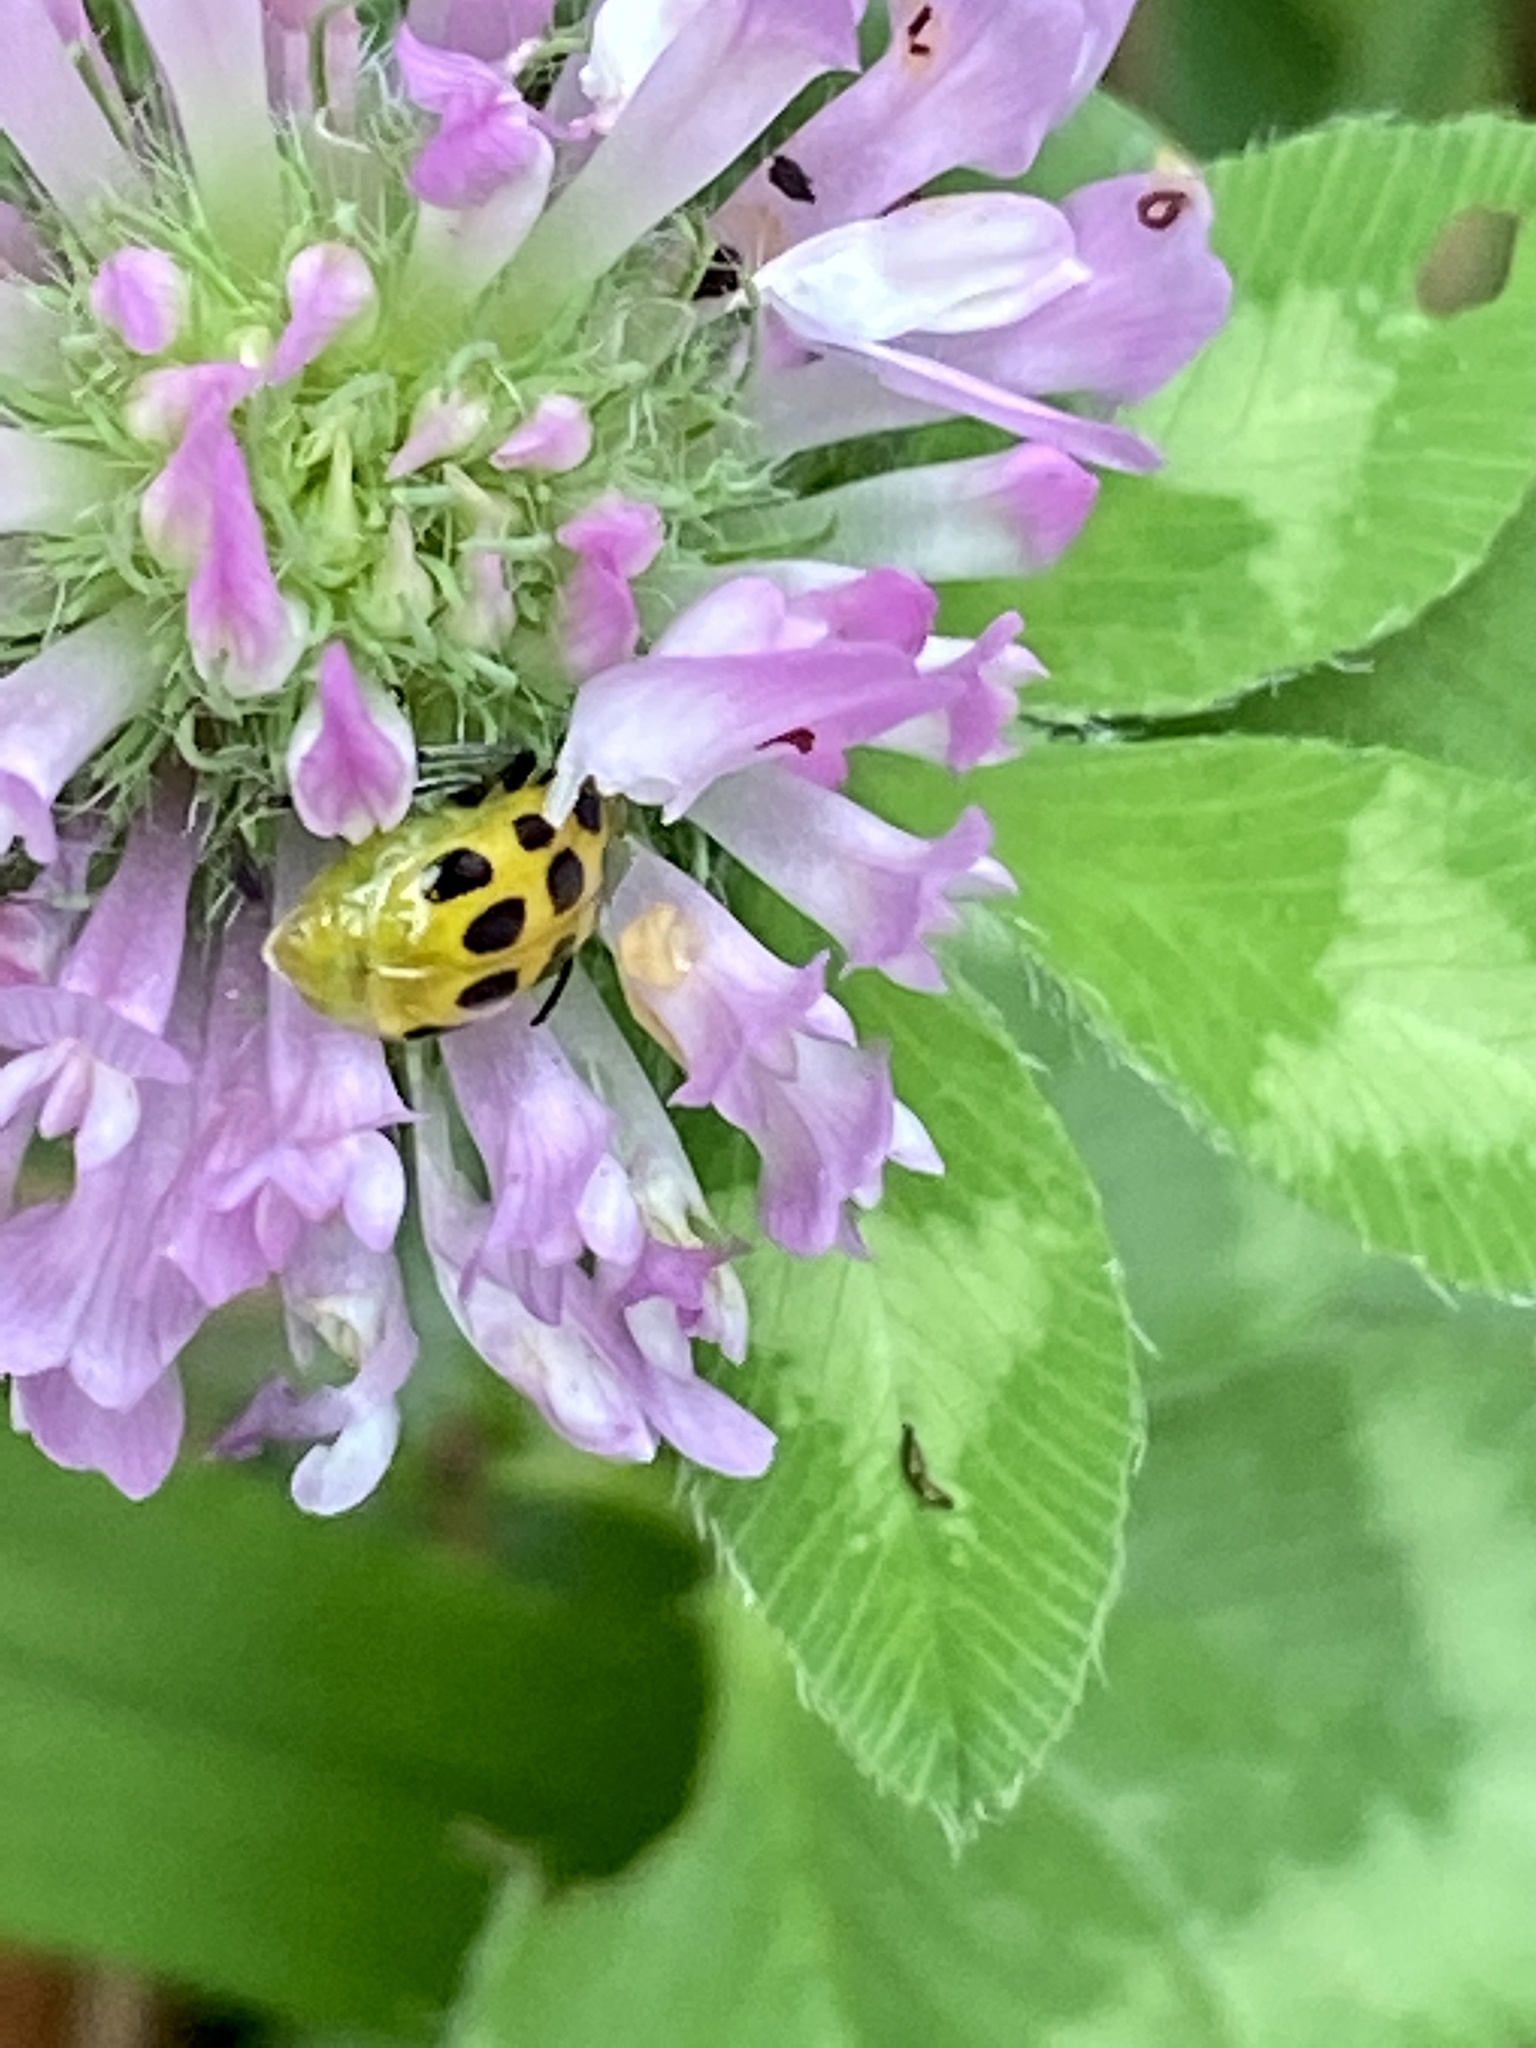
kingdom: Animalia
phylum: Arthropoda
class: Insecta
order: Coleoptera
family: Chrysomelidae
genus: Diabrotica
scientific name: Diabrotica undecimpunctata
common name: Spotted cucumber beetle
